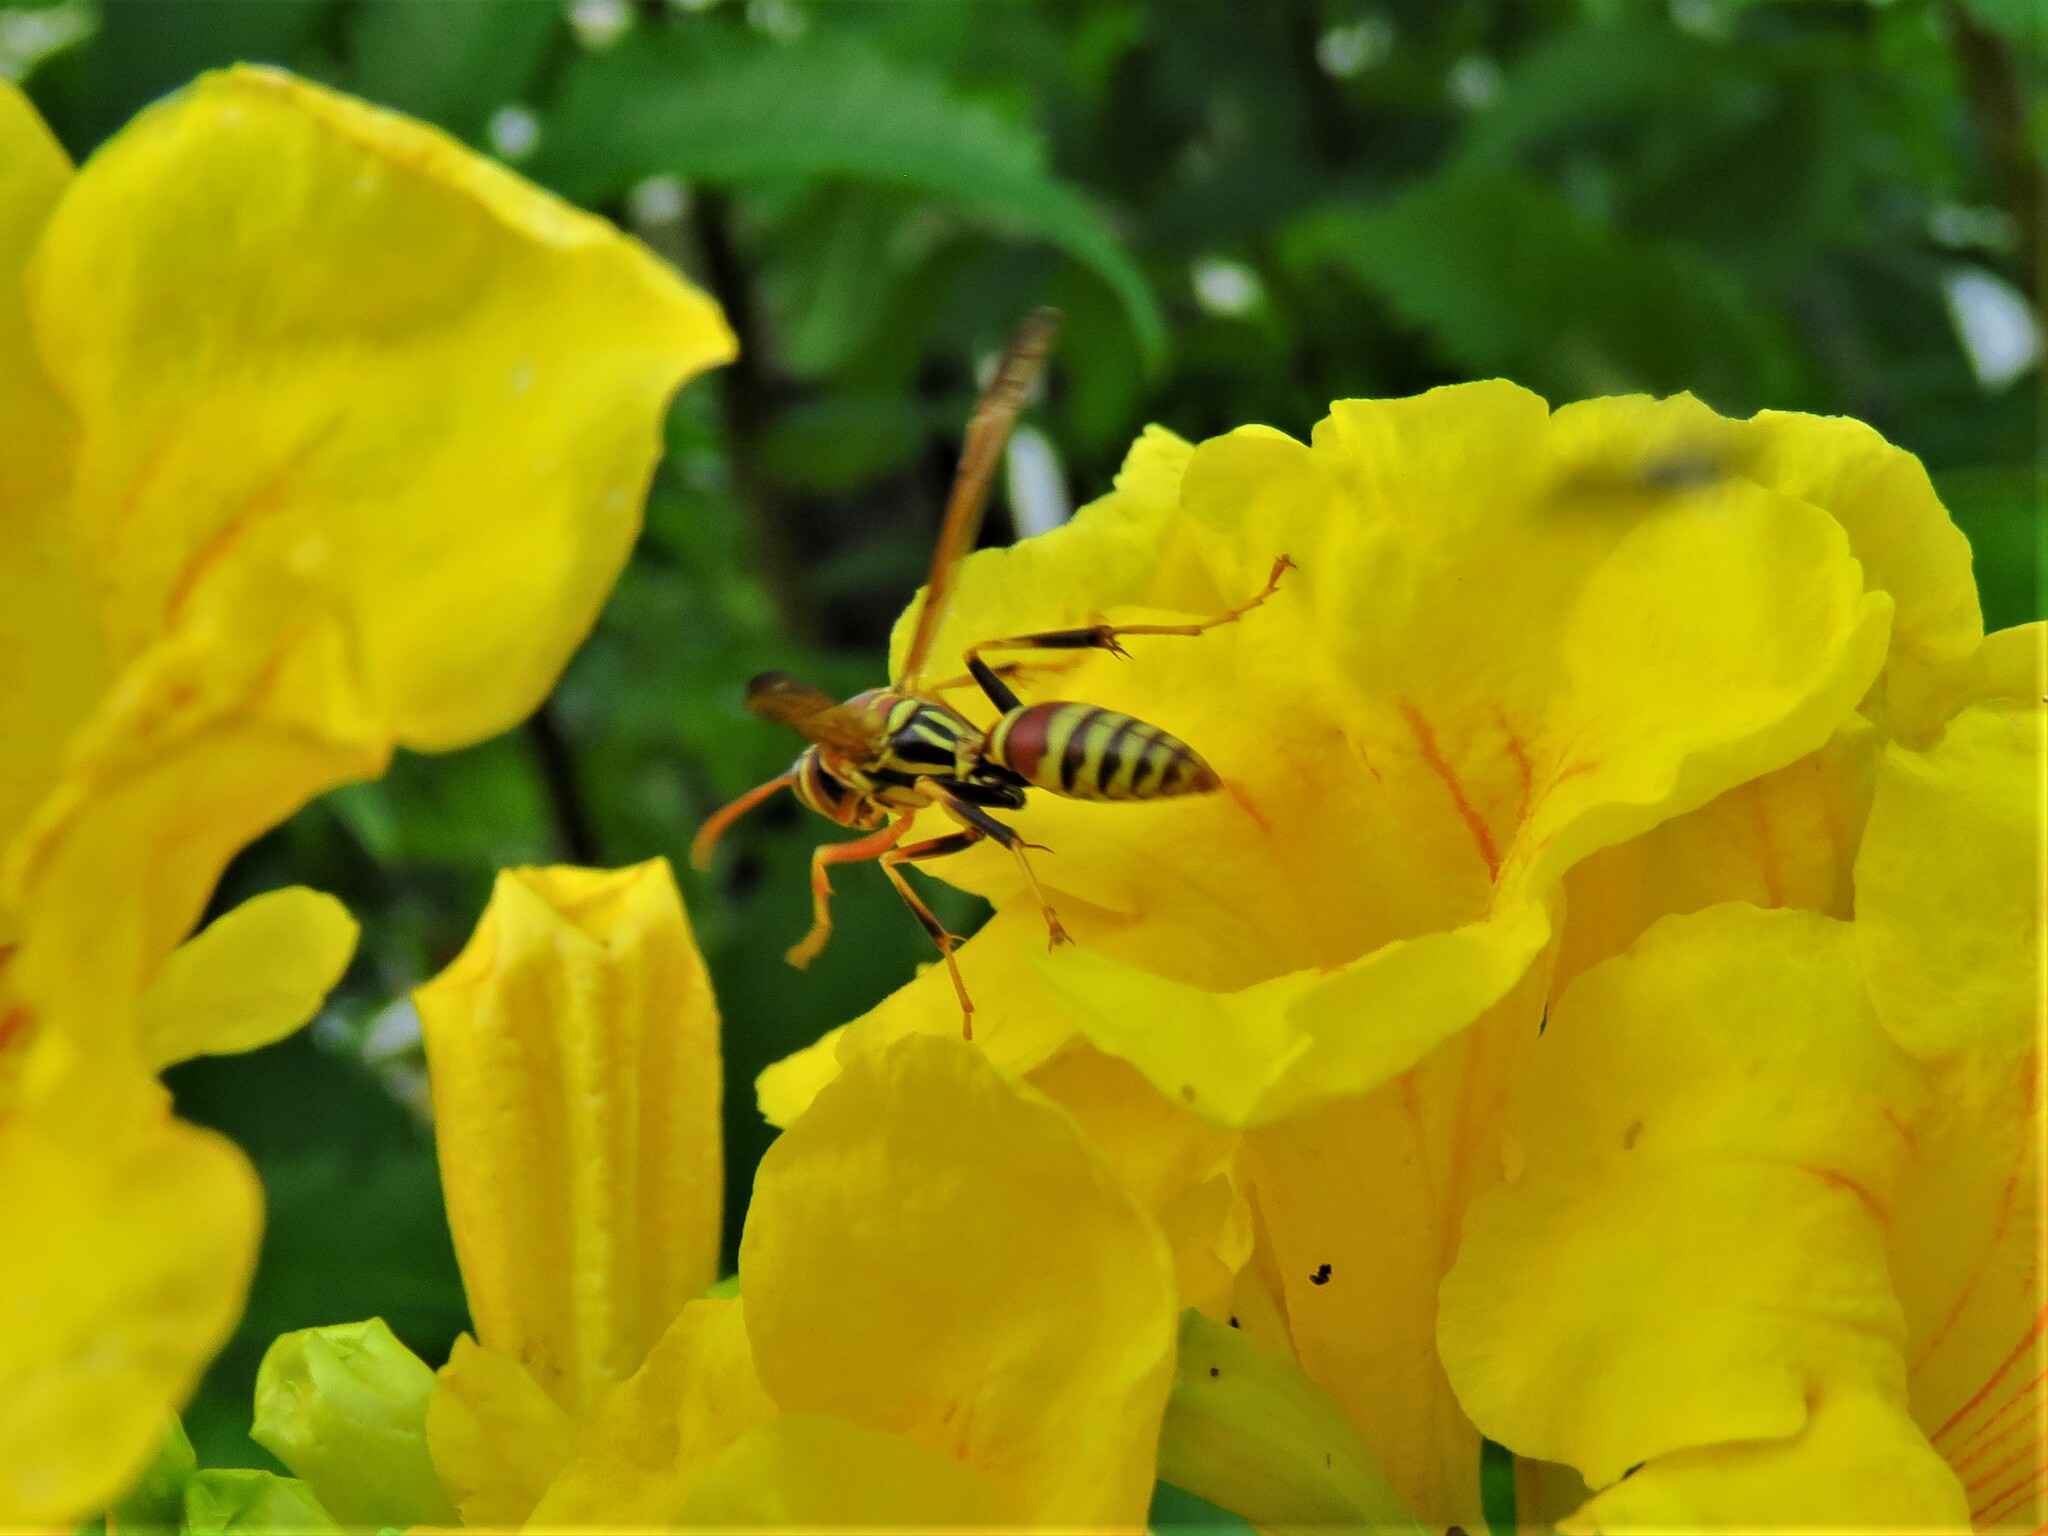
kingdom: Animalia
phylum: Arthropoda
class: Insecta
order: Hymenoptera
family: Eumenidae
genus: Polistes
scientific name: Polistes exclamans
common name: Paper wasp
